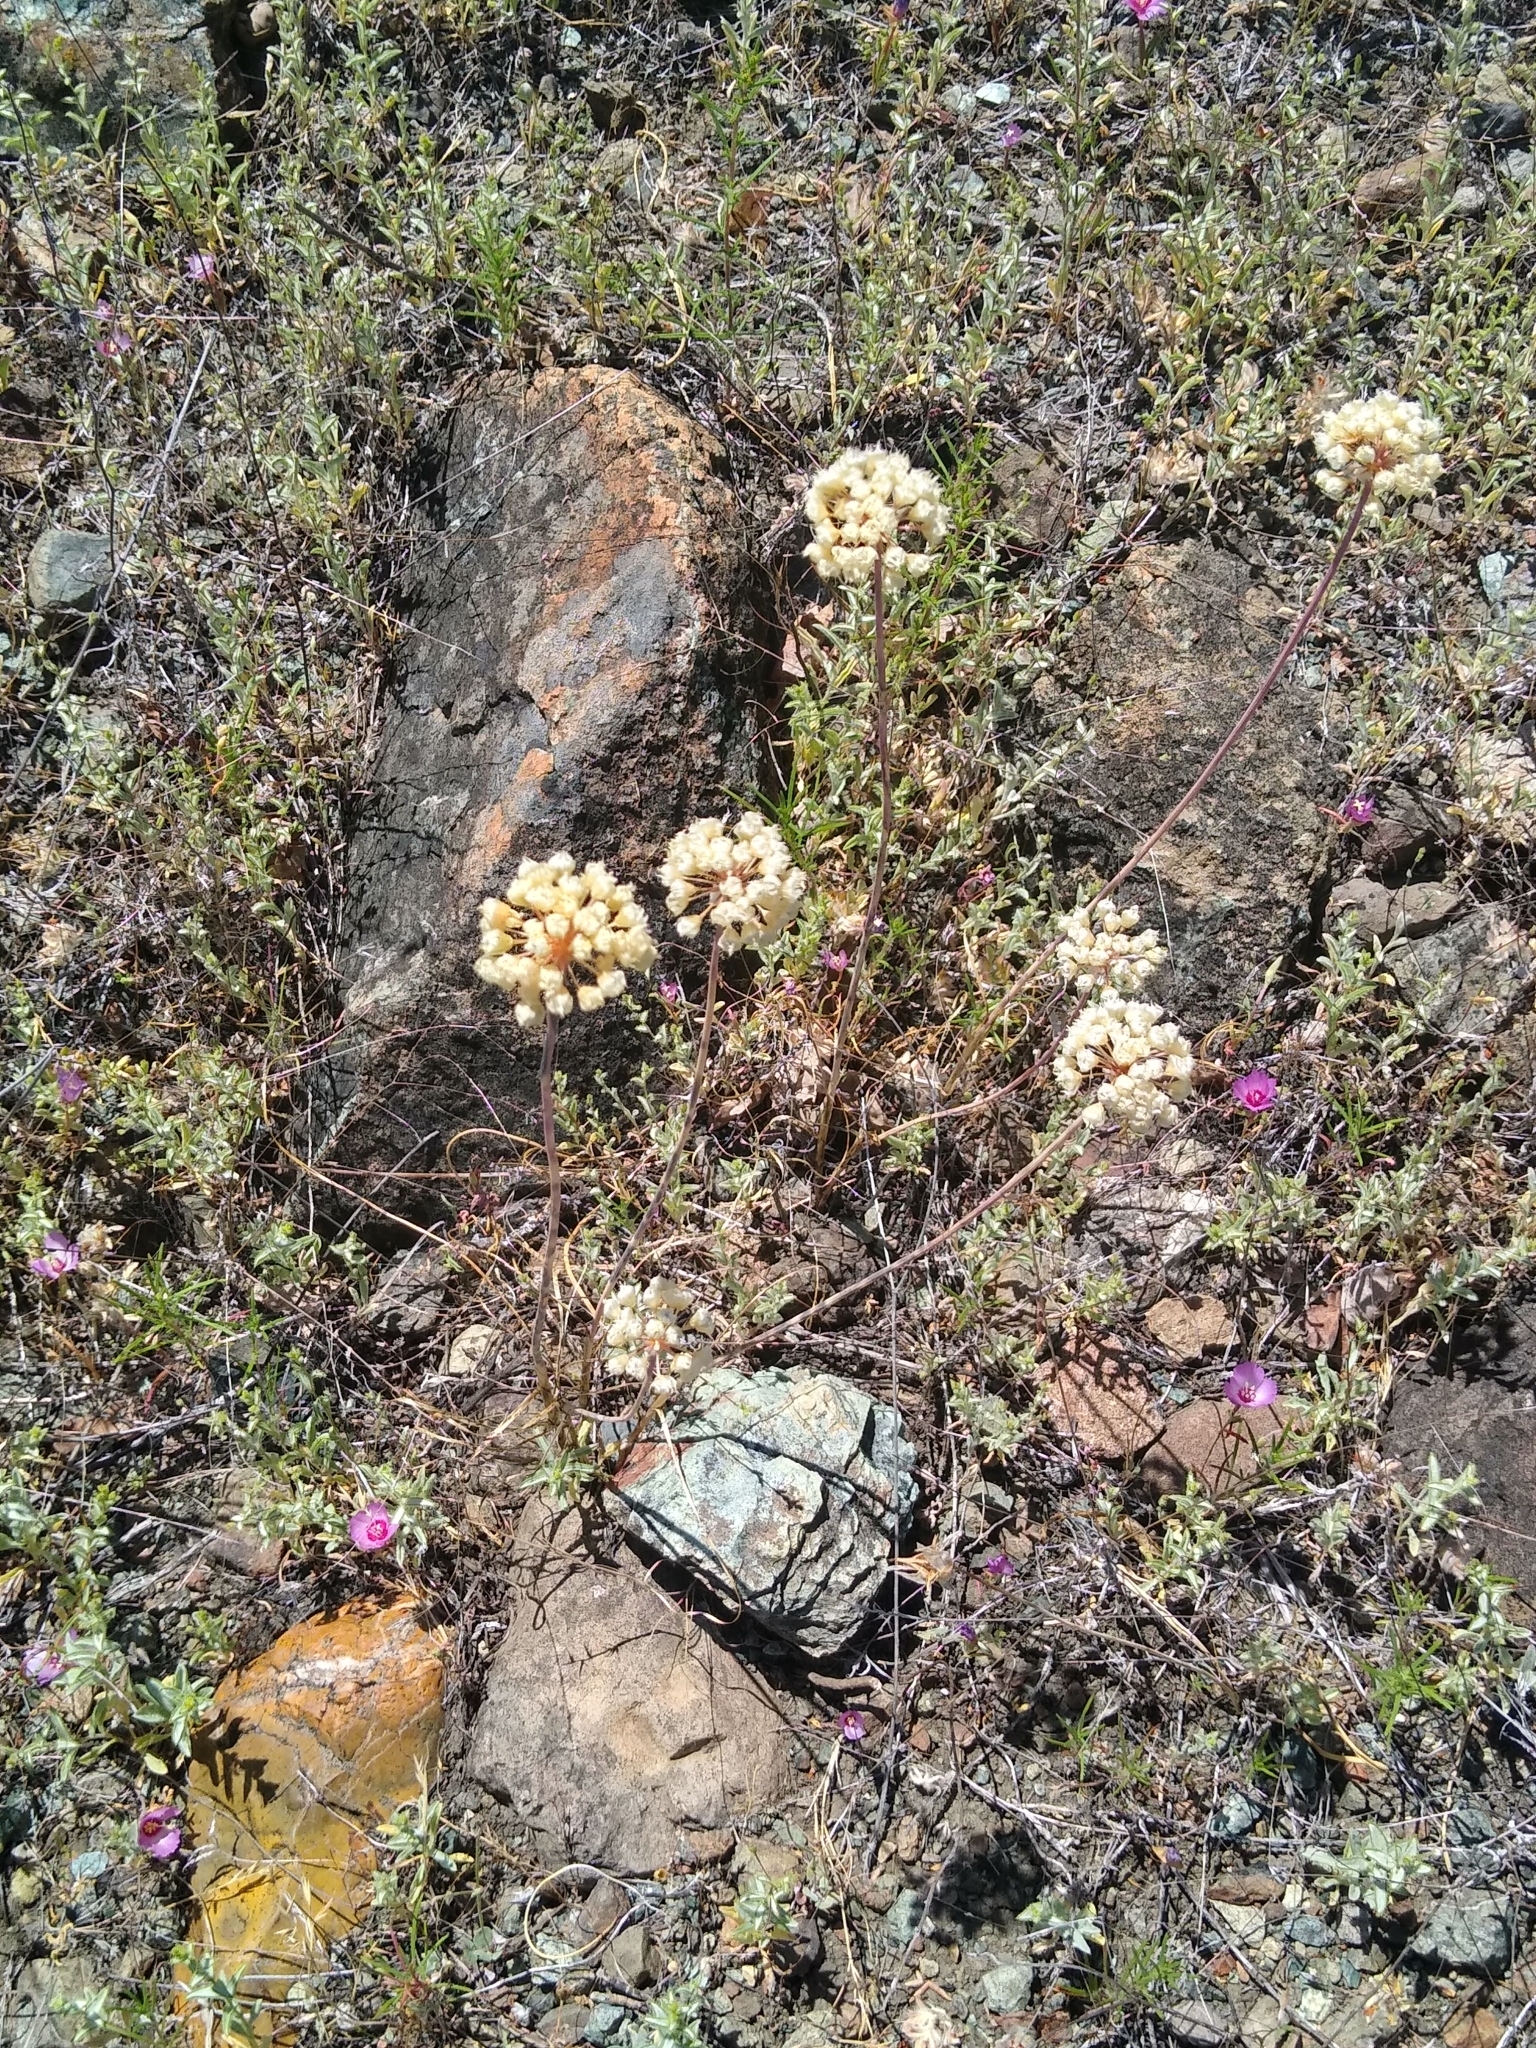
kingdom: Plantae
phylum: Tracheophyta
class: Liliopsida
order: Asparagales
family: Amaryllidaceae
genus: Allium
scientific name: Allium amplectens
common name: Narrow-leaved onion
